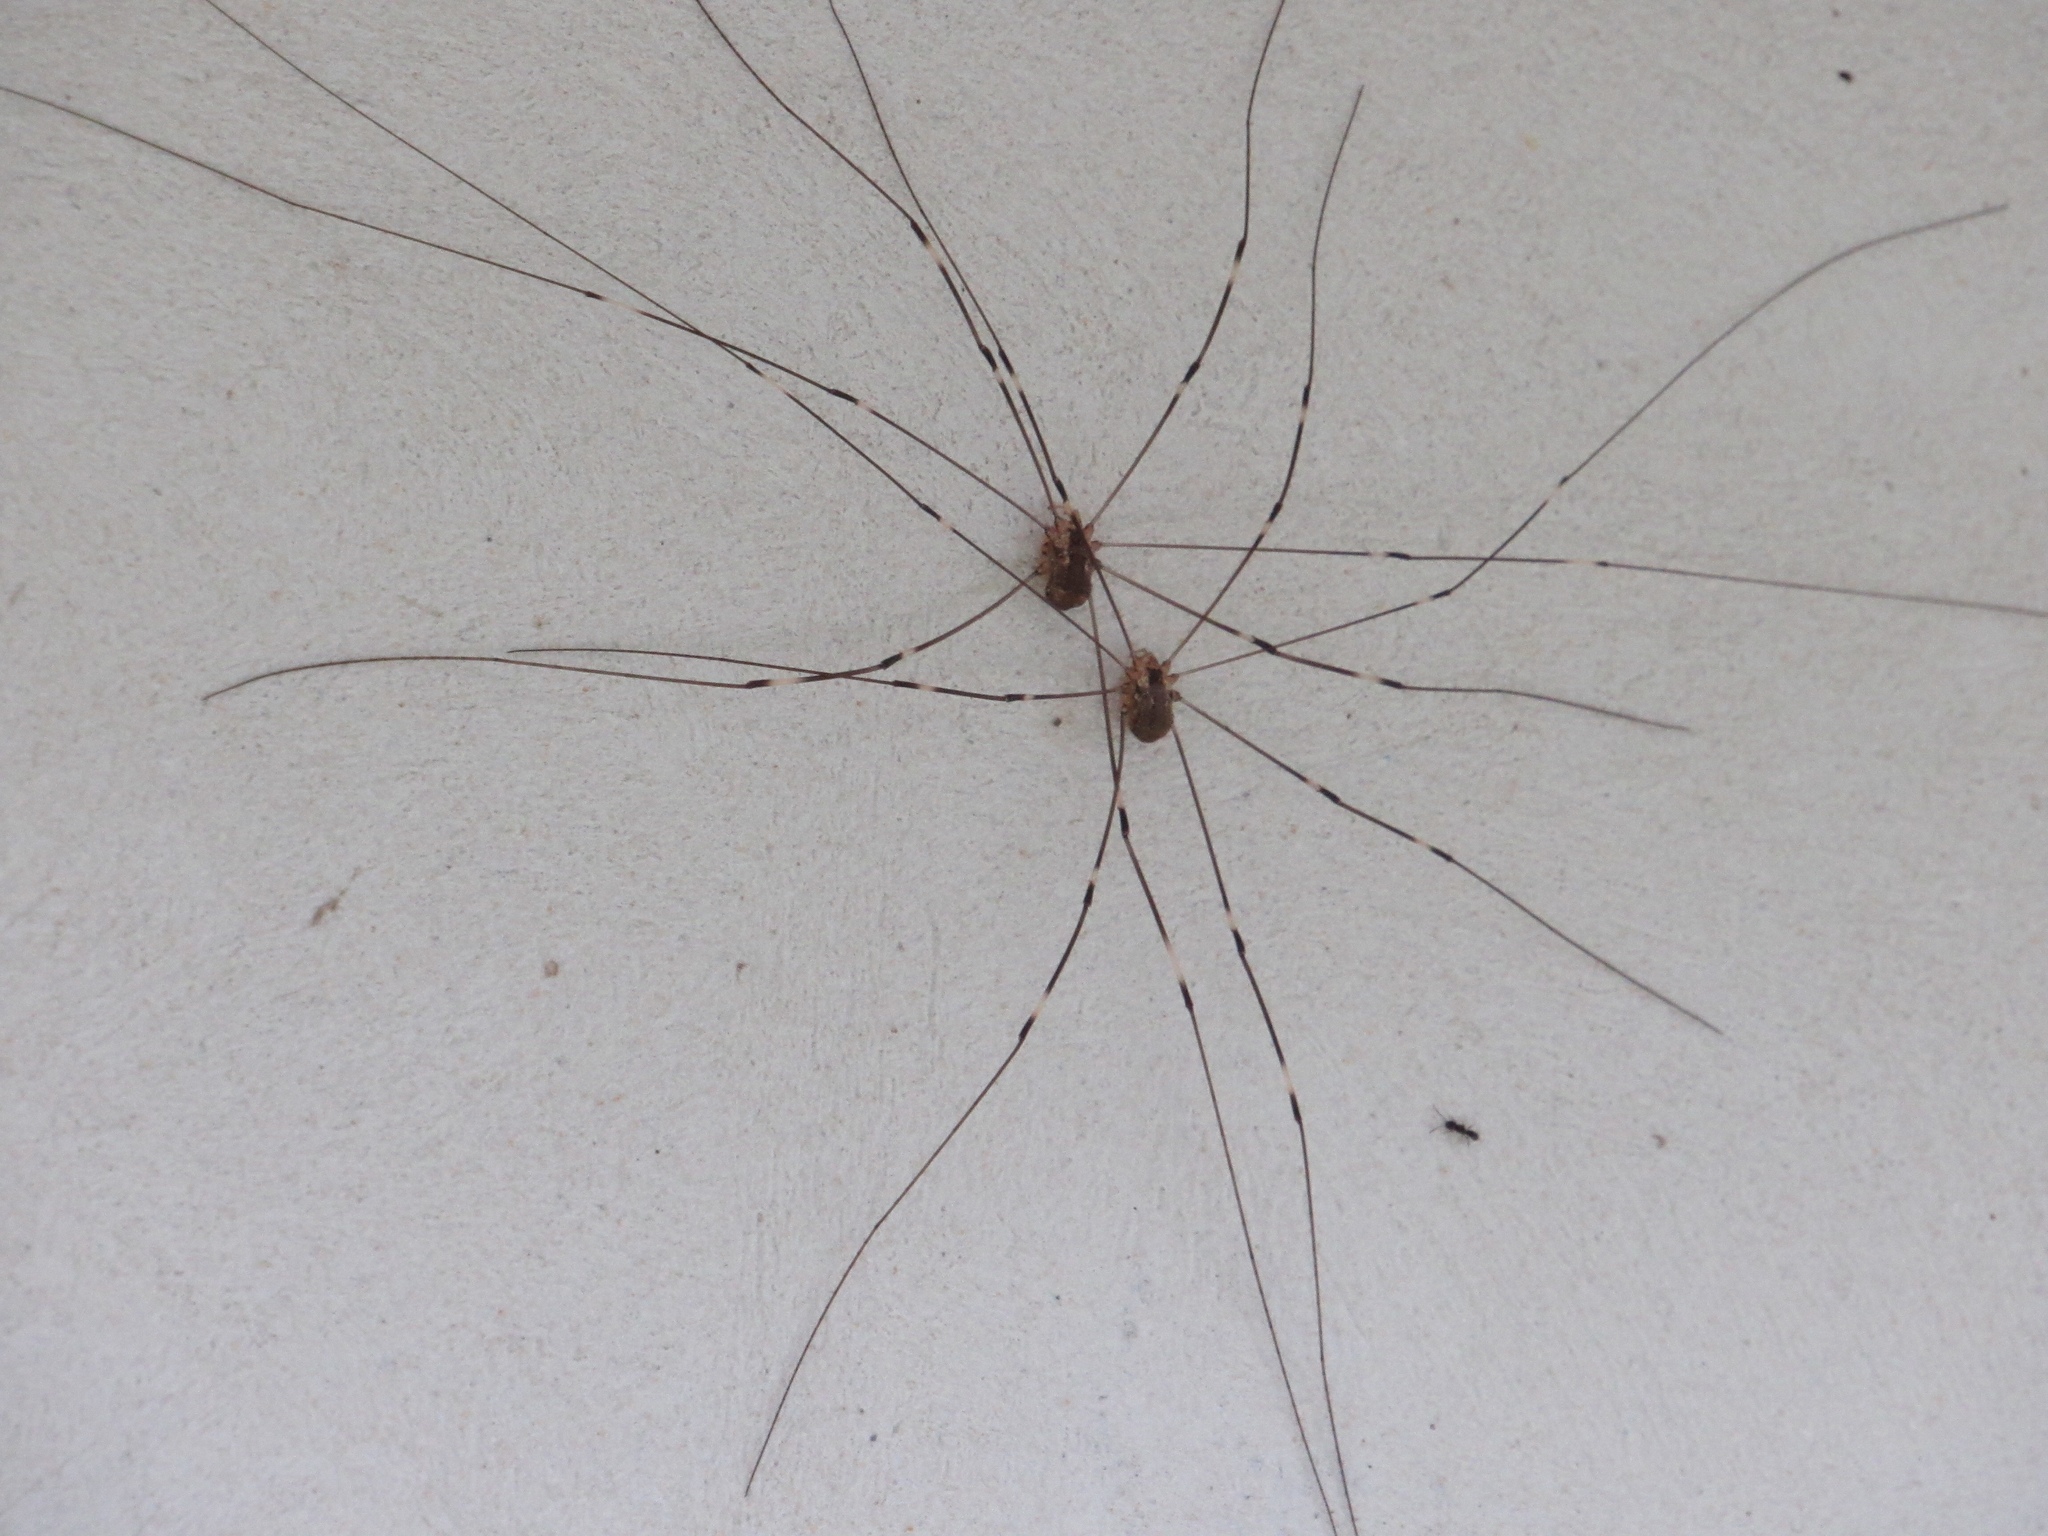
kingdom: Animalia
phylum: Arthropoda
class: Arachnida
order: Opiliones
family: Sclerosomatidae
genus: Leiobunum
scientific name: Leiobunum townsendi
